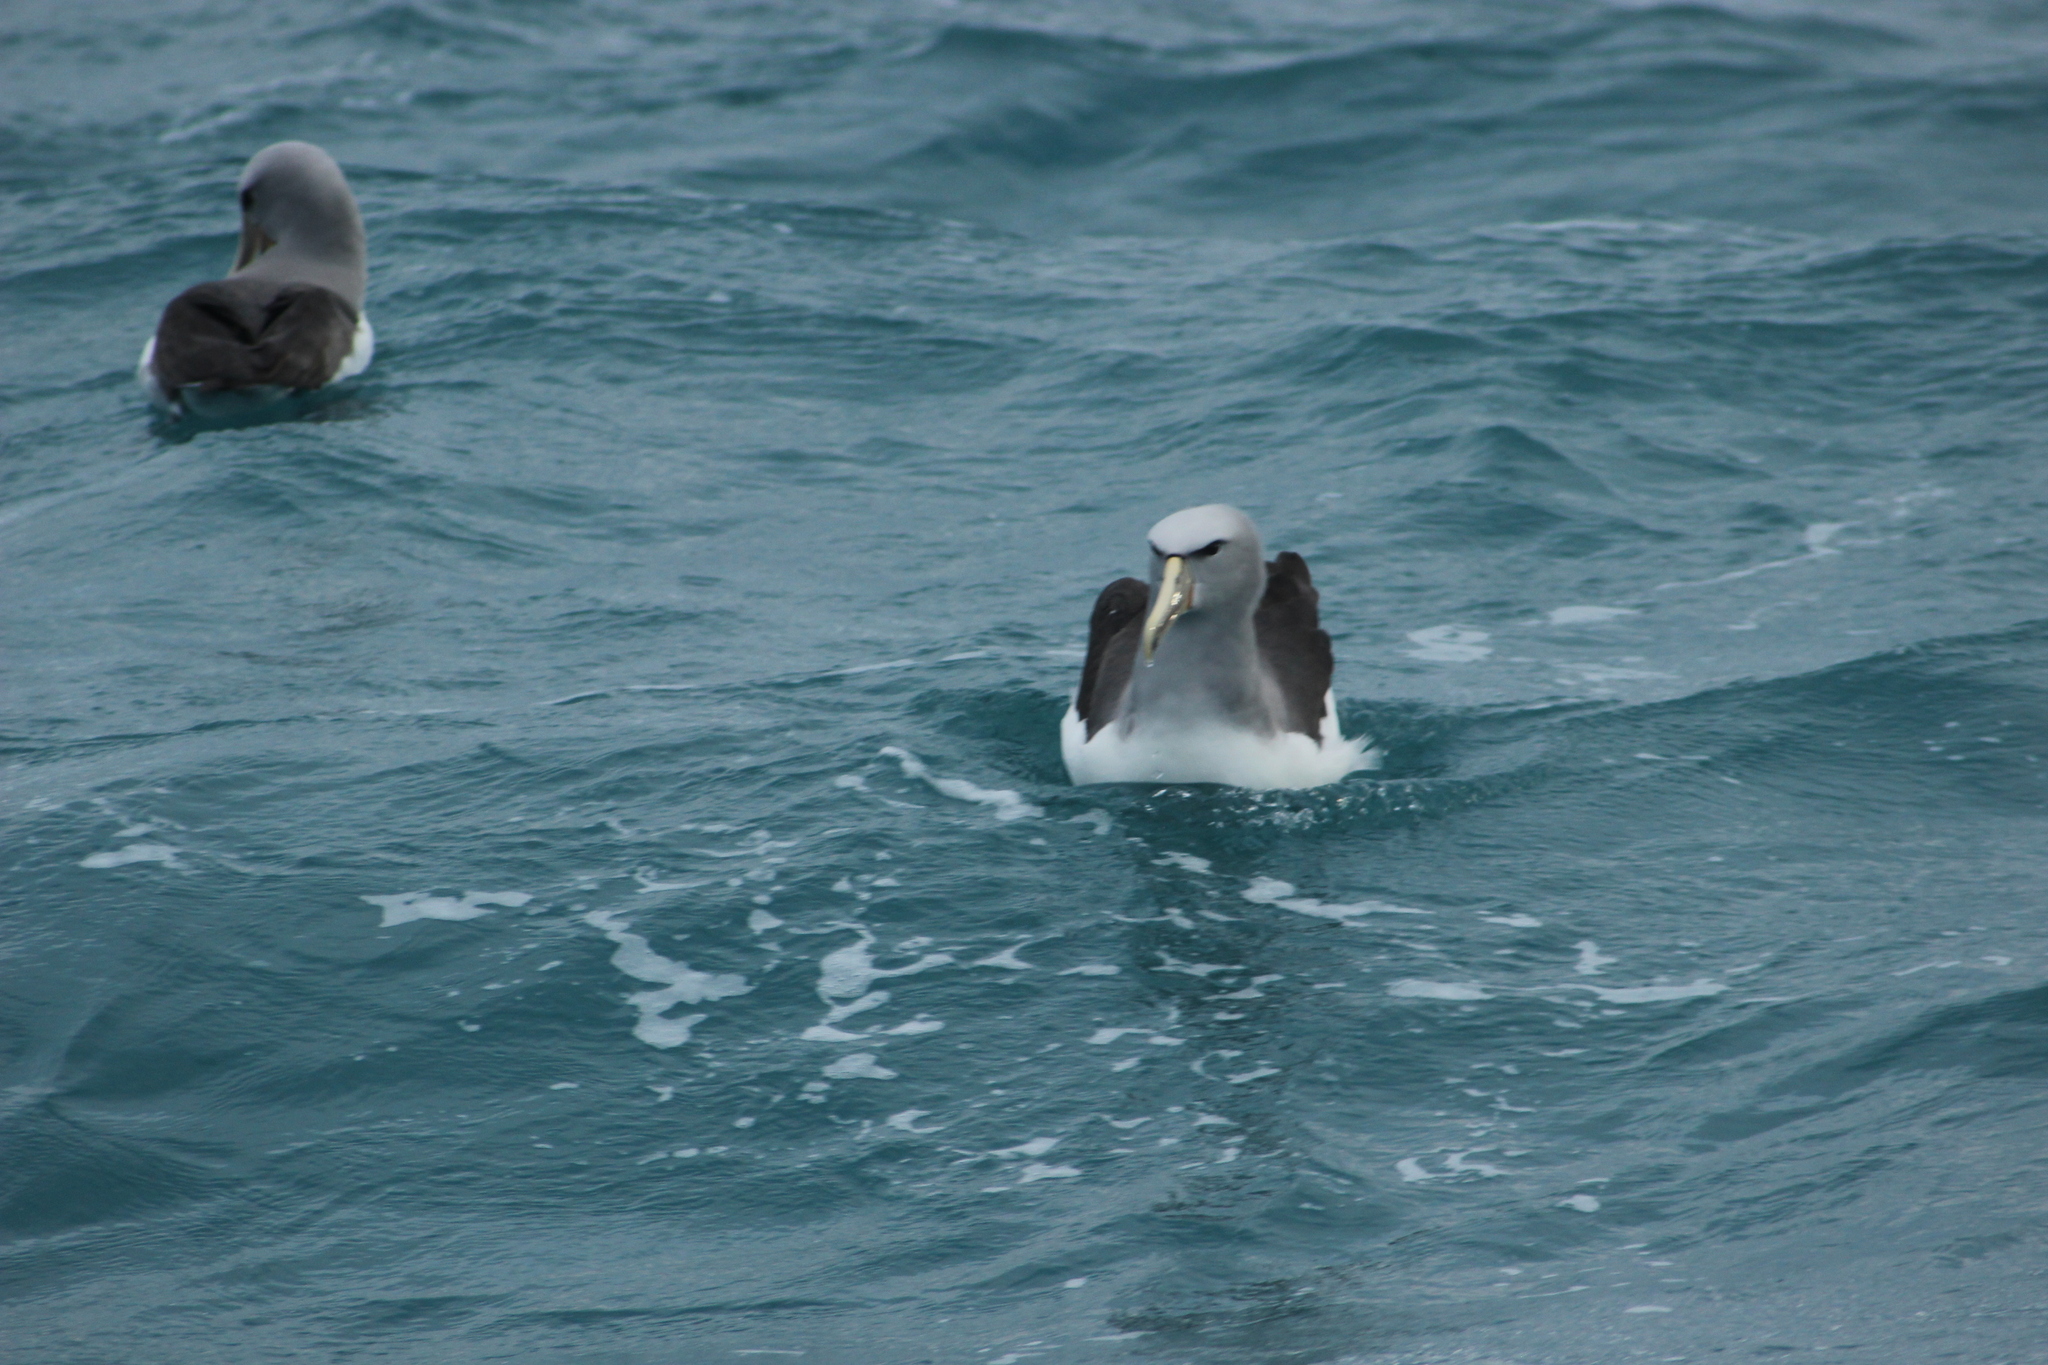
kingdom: Animalia
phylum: Chordata
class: Aves
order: Procellariiformes
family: Diomedeidae
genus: Thalassarche
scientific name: Thalassarche salvini
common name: Salvin's albatross
